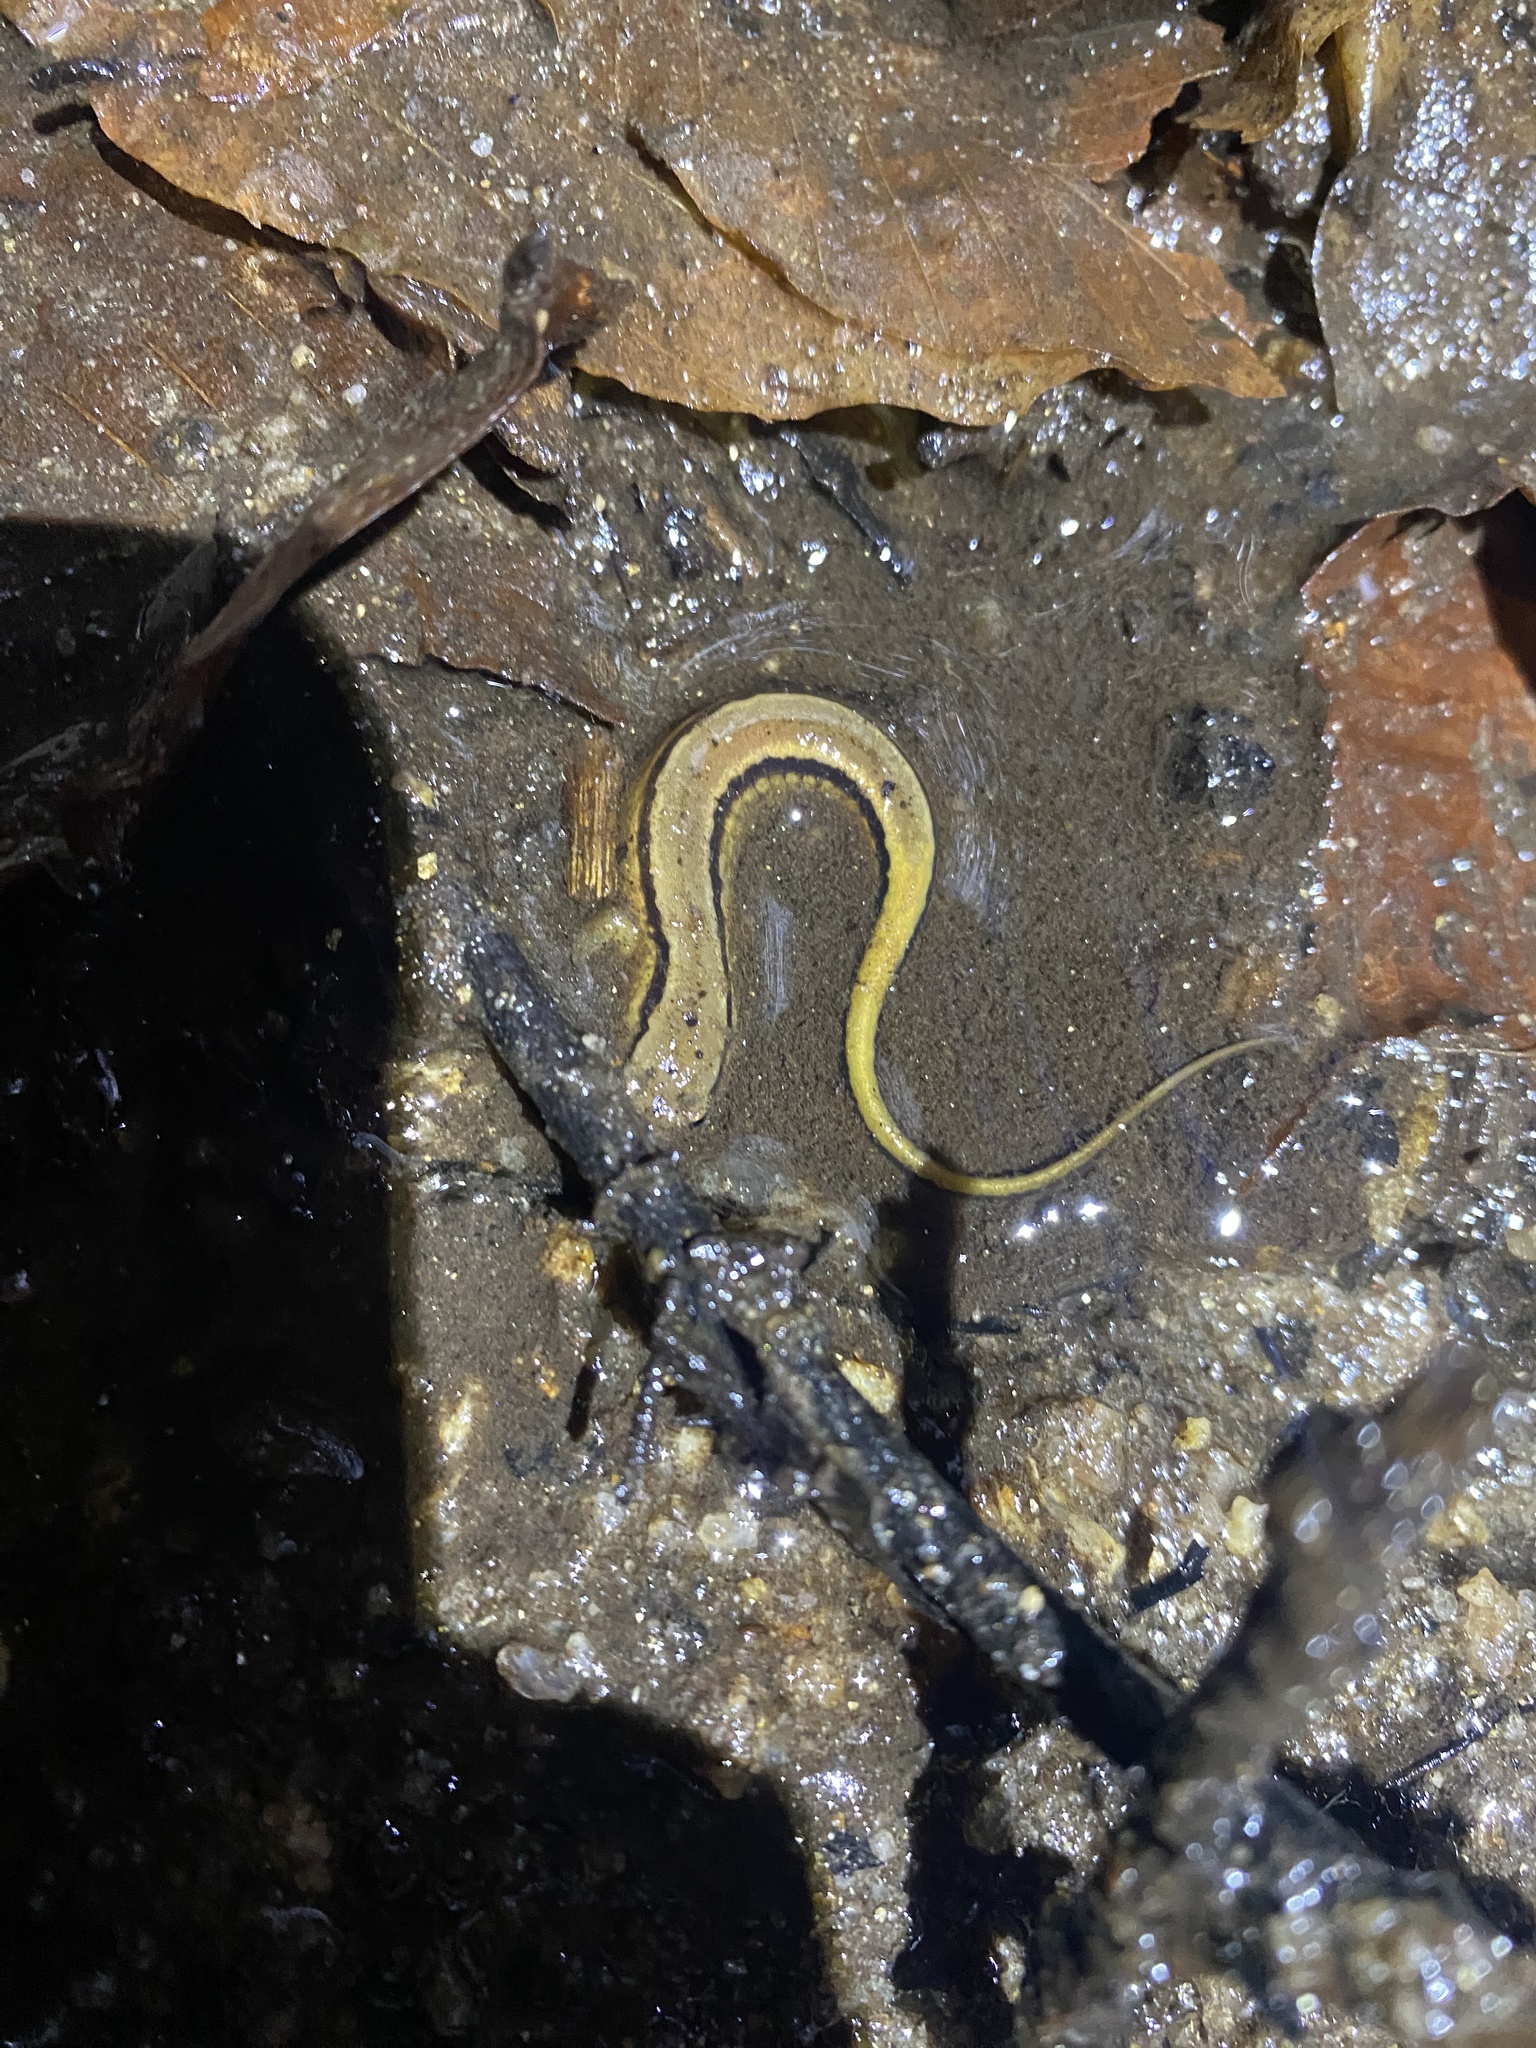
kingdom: Animalia
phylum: Chordata
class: Amphibia
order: Caudata
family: Plethodontidae
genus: Eurycea
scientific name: Eurycea cirrigera
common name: Southern two-lined salamander
